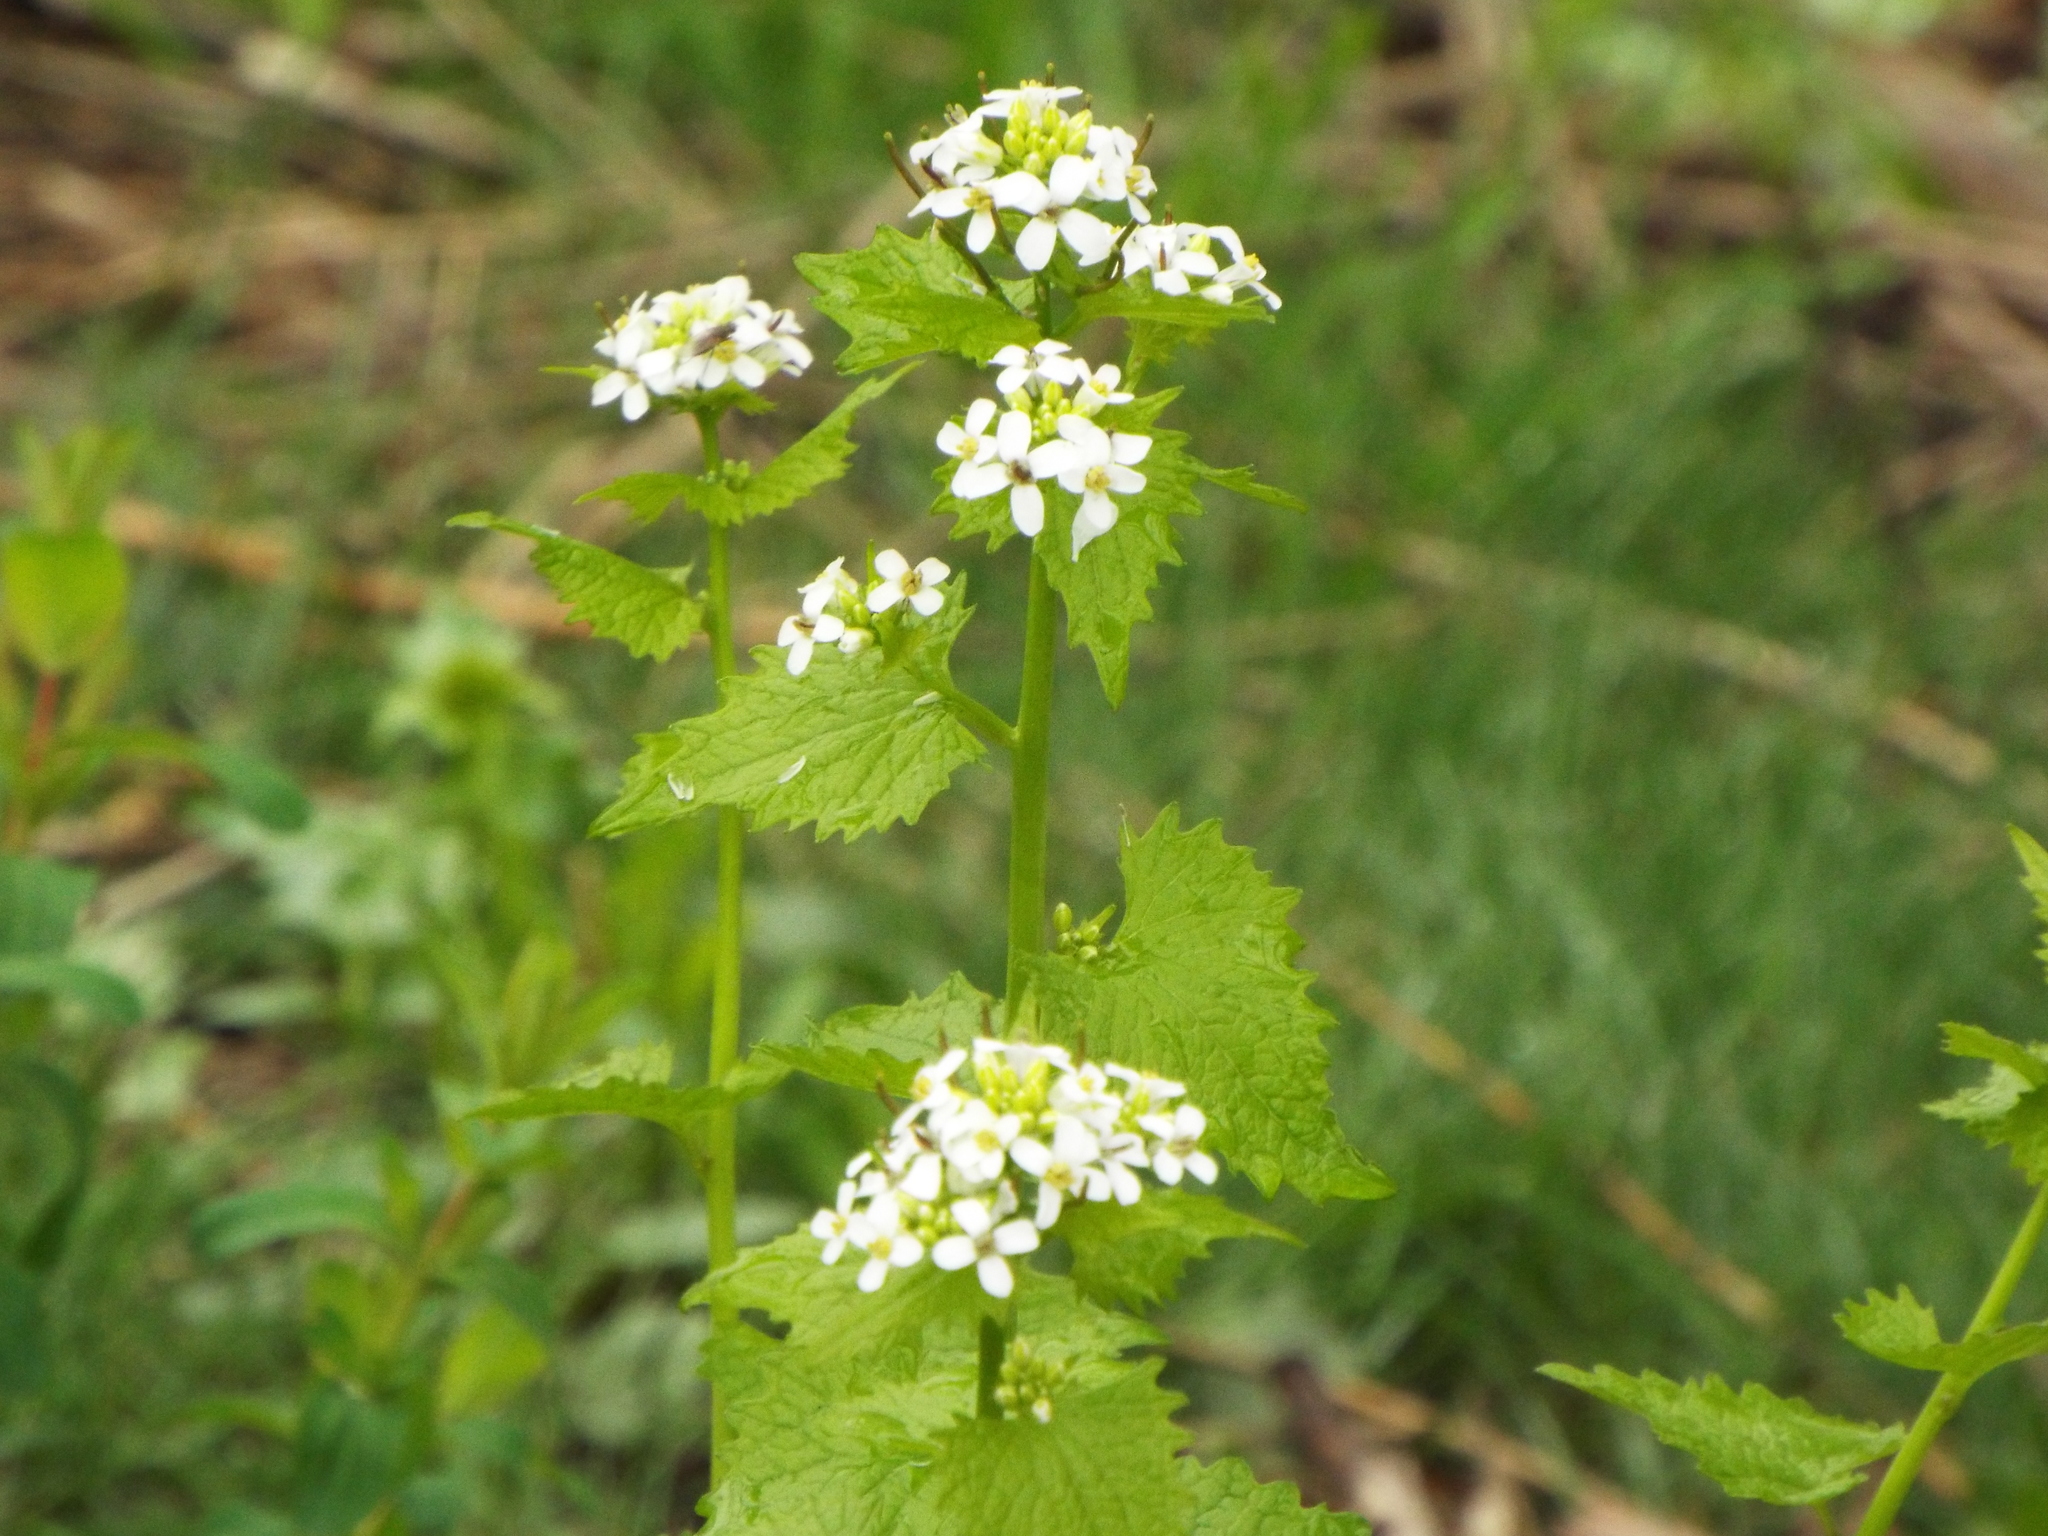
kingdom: Plantae
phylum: Tracheophyta
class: Magnoliopsida
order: Brassicales
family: Brassicaceae
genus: Alliaria
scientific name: Alliaria petiolata
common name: Garlic mustard
